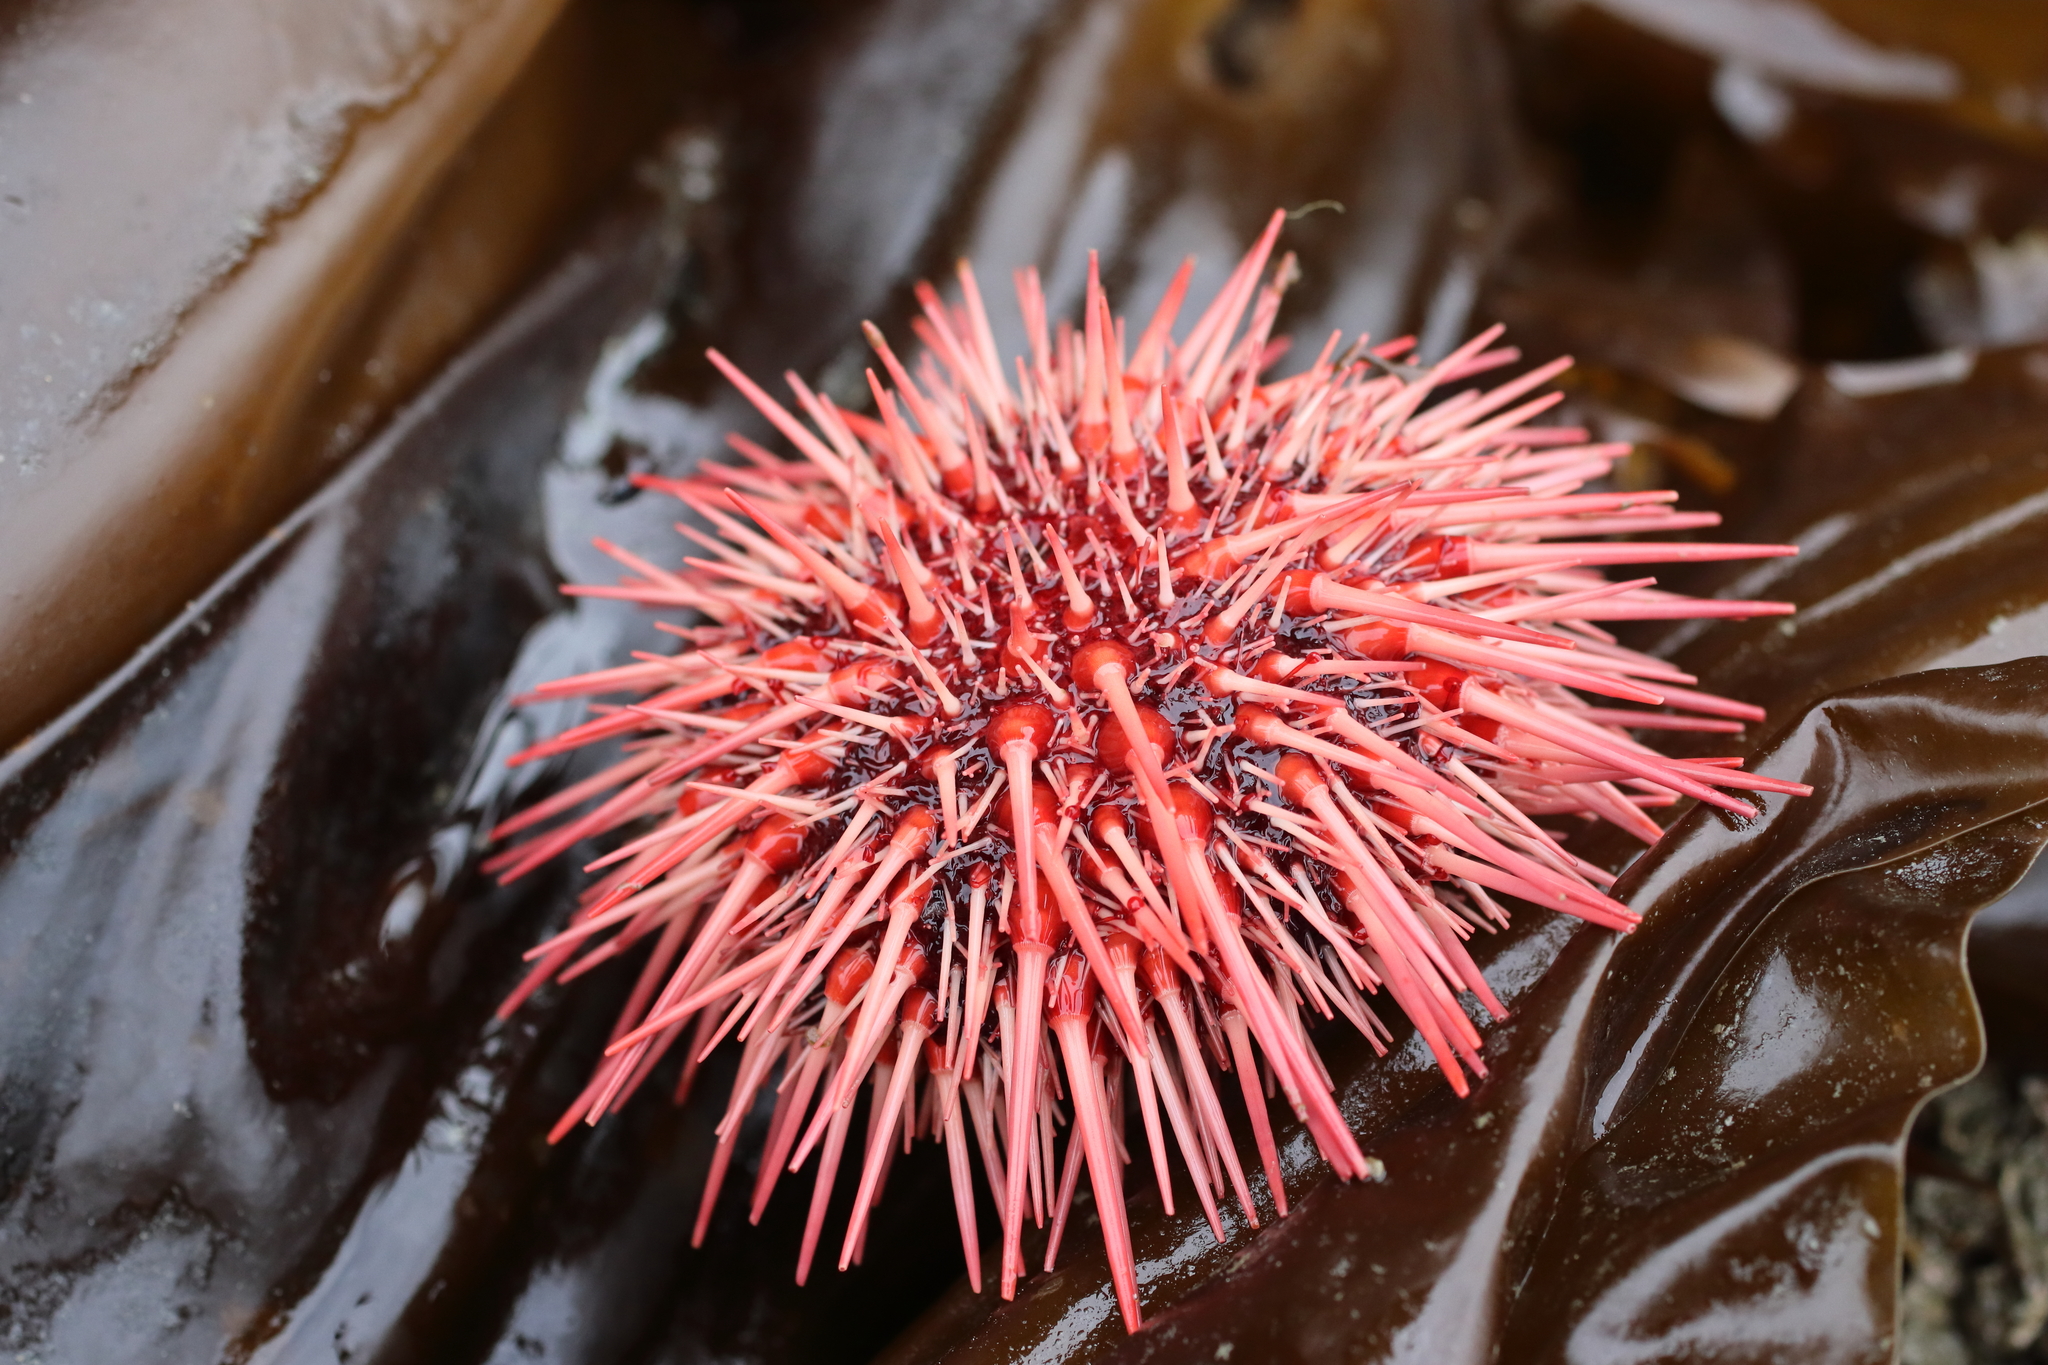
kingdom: Animalia
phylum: Echinodermata
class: Echinoidea
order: Camarodonta
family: Strongylocentrotidae
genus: Mesocentrotus
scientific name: Mesocentrotus franciscanus
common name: Red sea urchin
